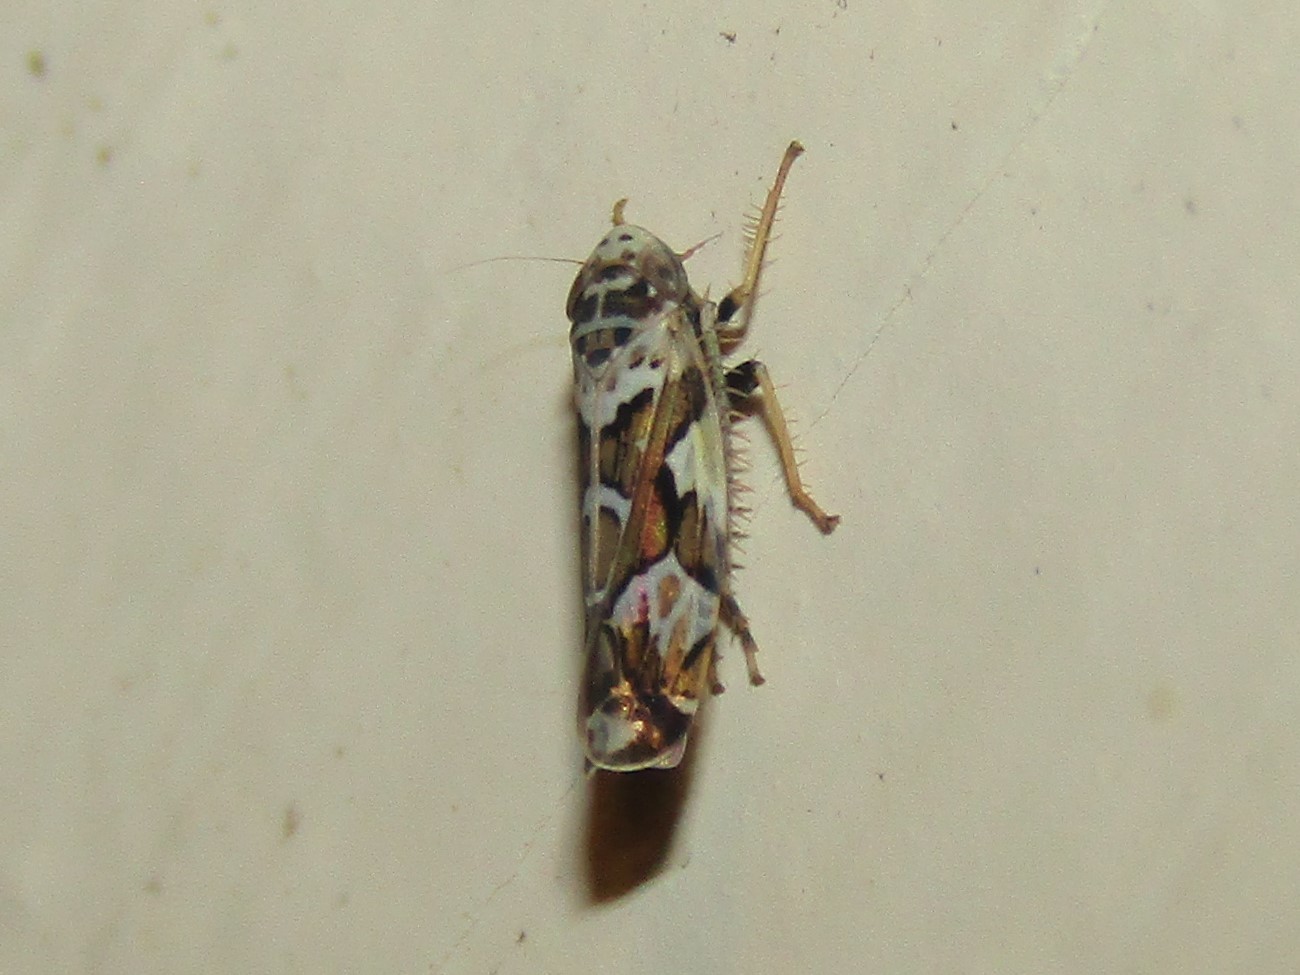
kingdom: Animalia
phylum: Arthropoda
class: Insecta
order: Hemiptera
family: Cicadellidae
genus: Sanctanus
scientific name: Sanctanus cruciatus
